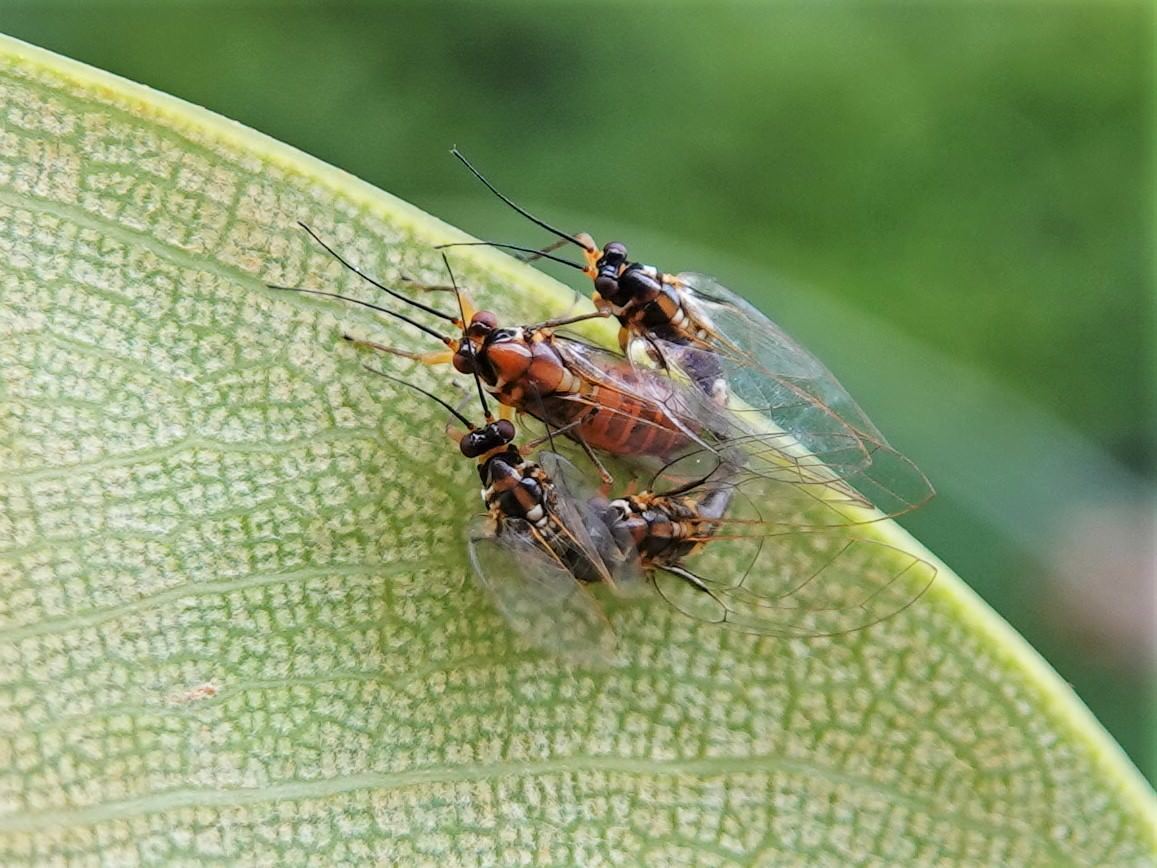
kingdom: Animalia
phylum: Arthropoda
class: Insecta
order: Hemiptera
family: Homotomidae
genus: Mycopsylla
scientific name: Mycopsylla fici
